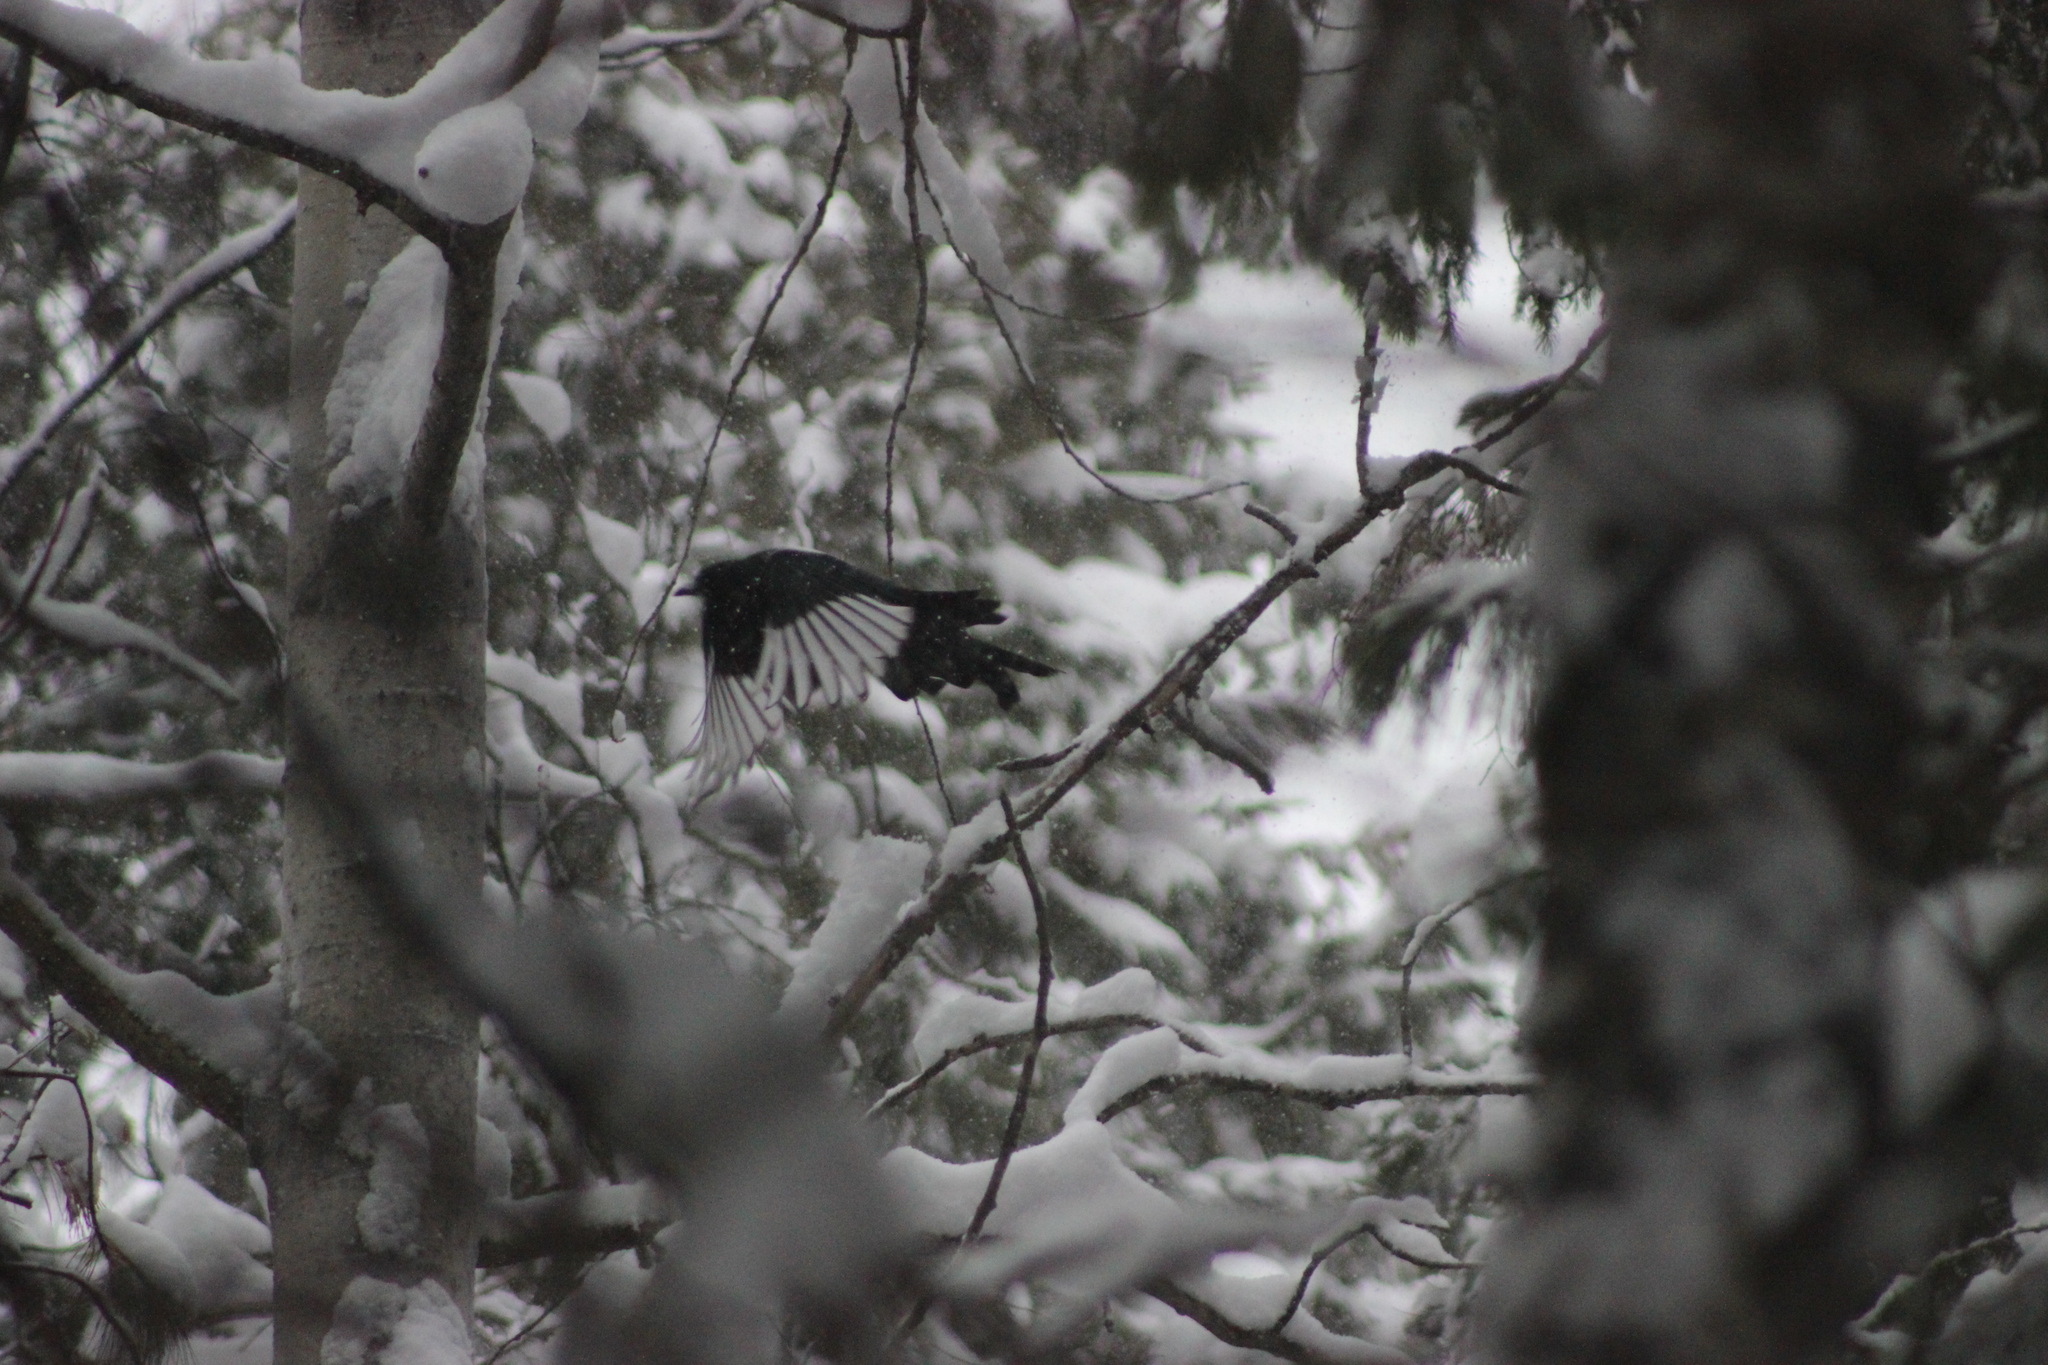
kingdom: Animalia
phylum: Chordata
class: Aves
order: Passeriformes
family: Corvidae
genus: Pica
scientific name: Pica pica
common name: Eurasian magpie
